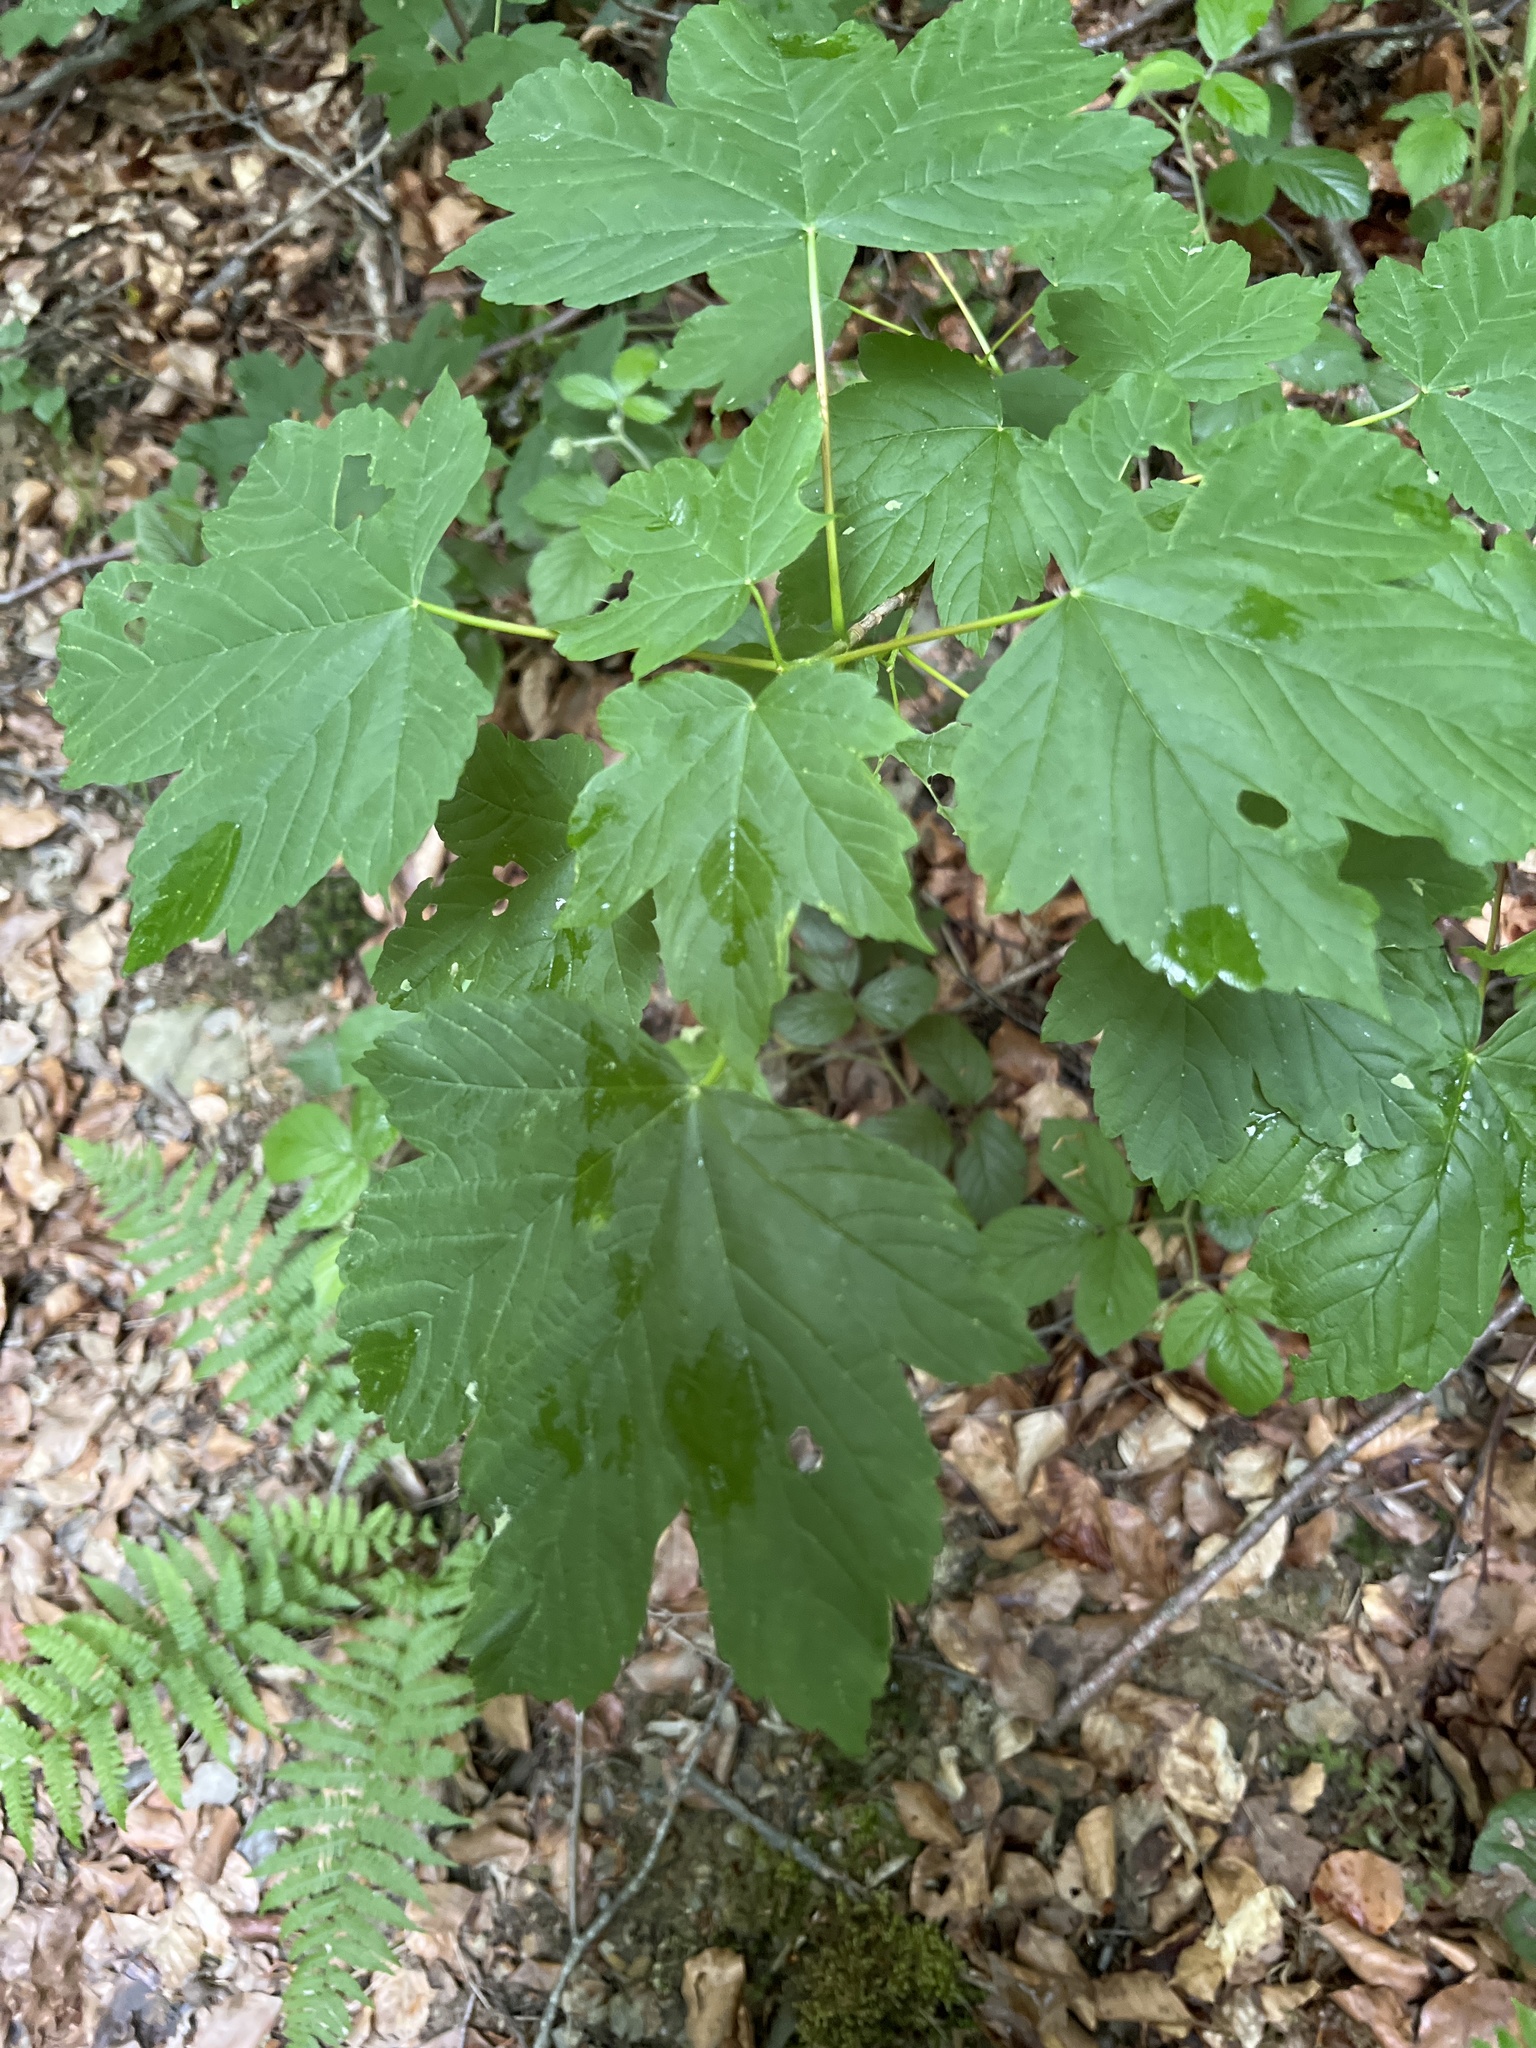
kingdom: Plantae
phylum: Tracheophyta
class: Magnoliopsida
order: Sapindales
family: Sapindaceae
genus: Acer
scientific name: Acer pseudoplatanus
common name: Sycamore
